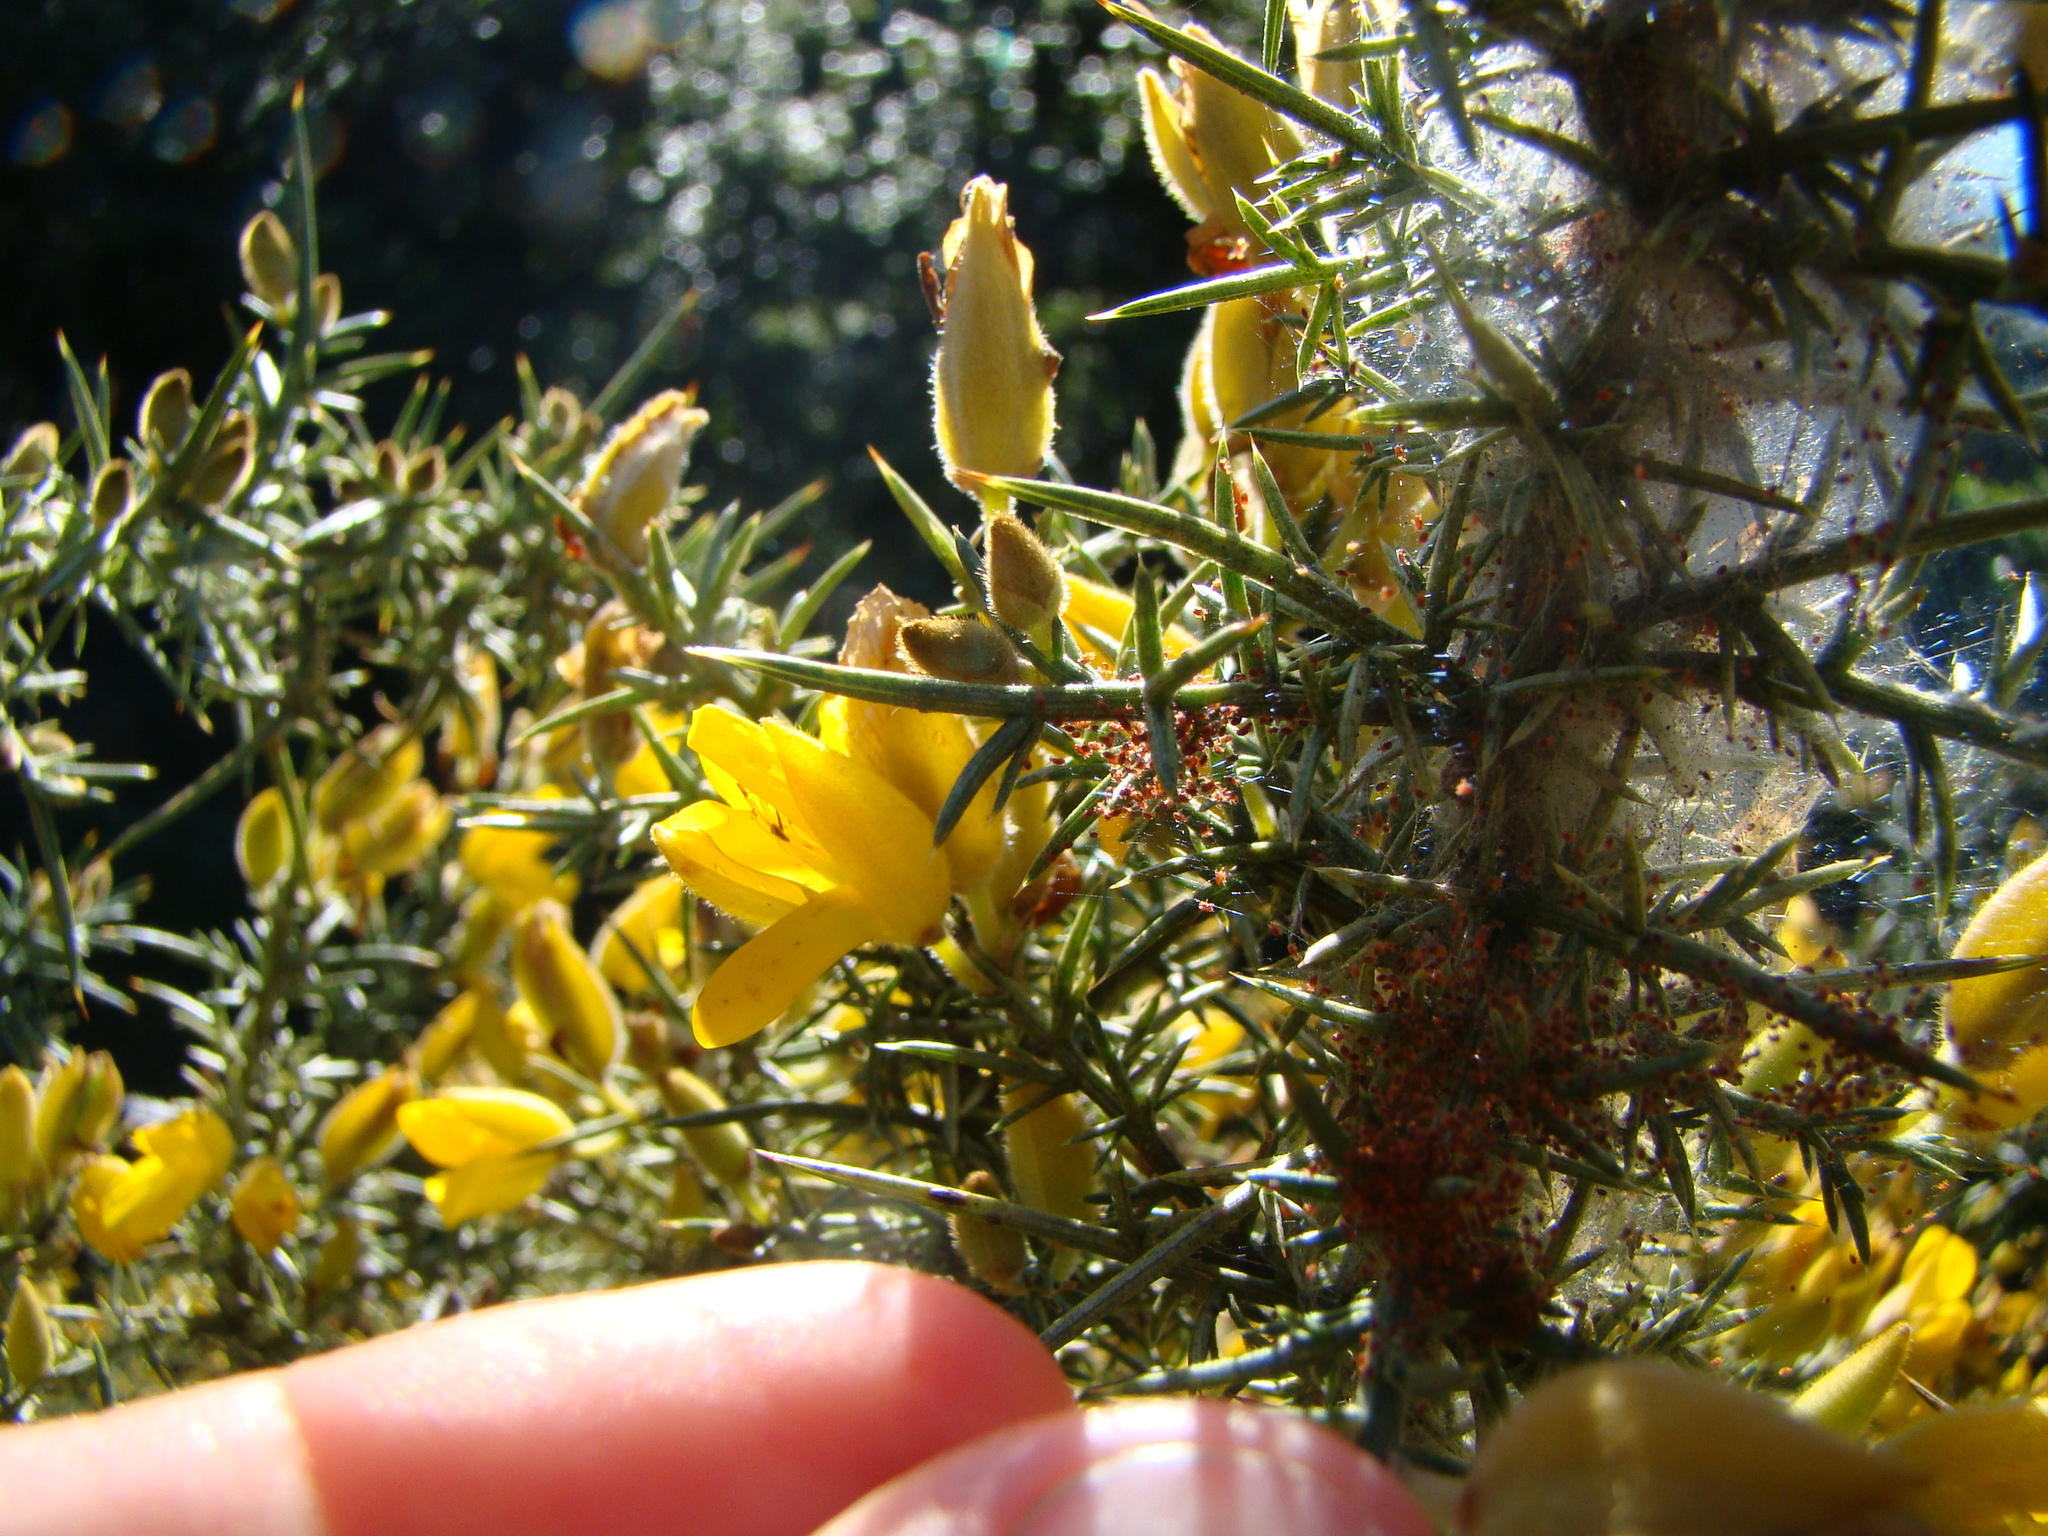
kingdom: Animalia
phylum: Arthropoda
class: Arachnida
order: Trombidiformes
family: Tetranychidae
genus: Tetranychus
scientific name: Tetranychus lintearius
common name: Gorse spider mite
